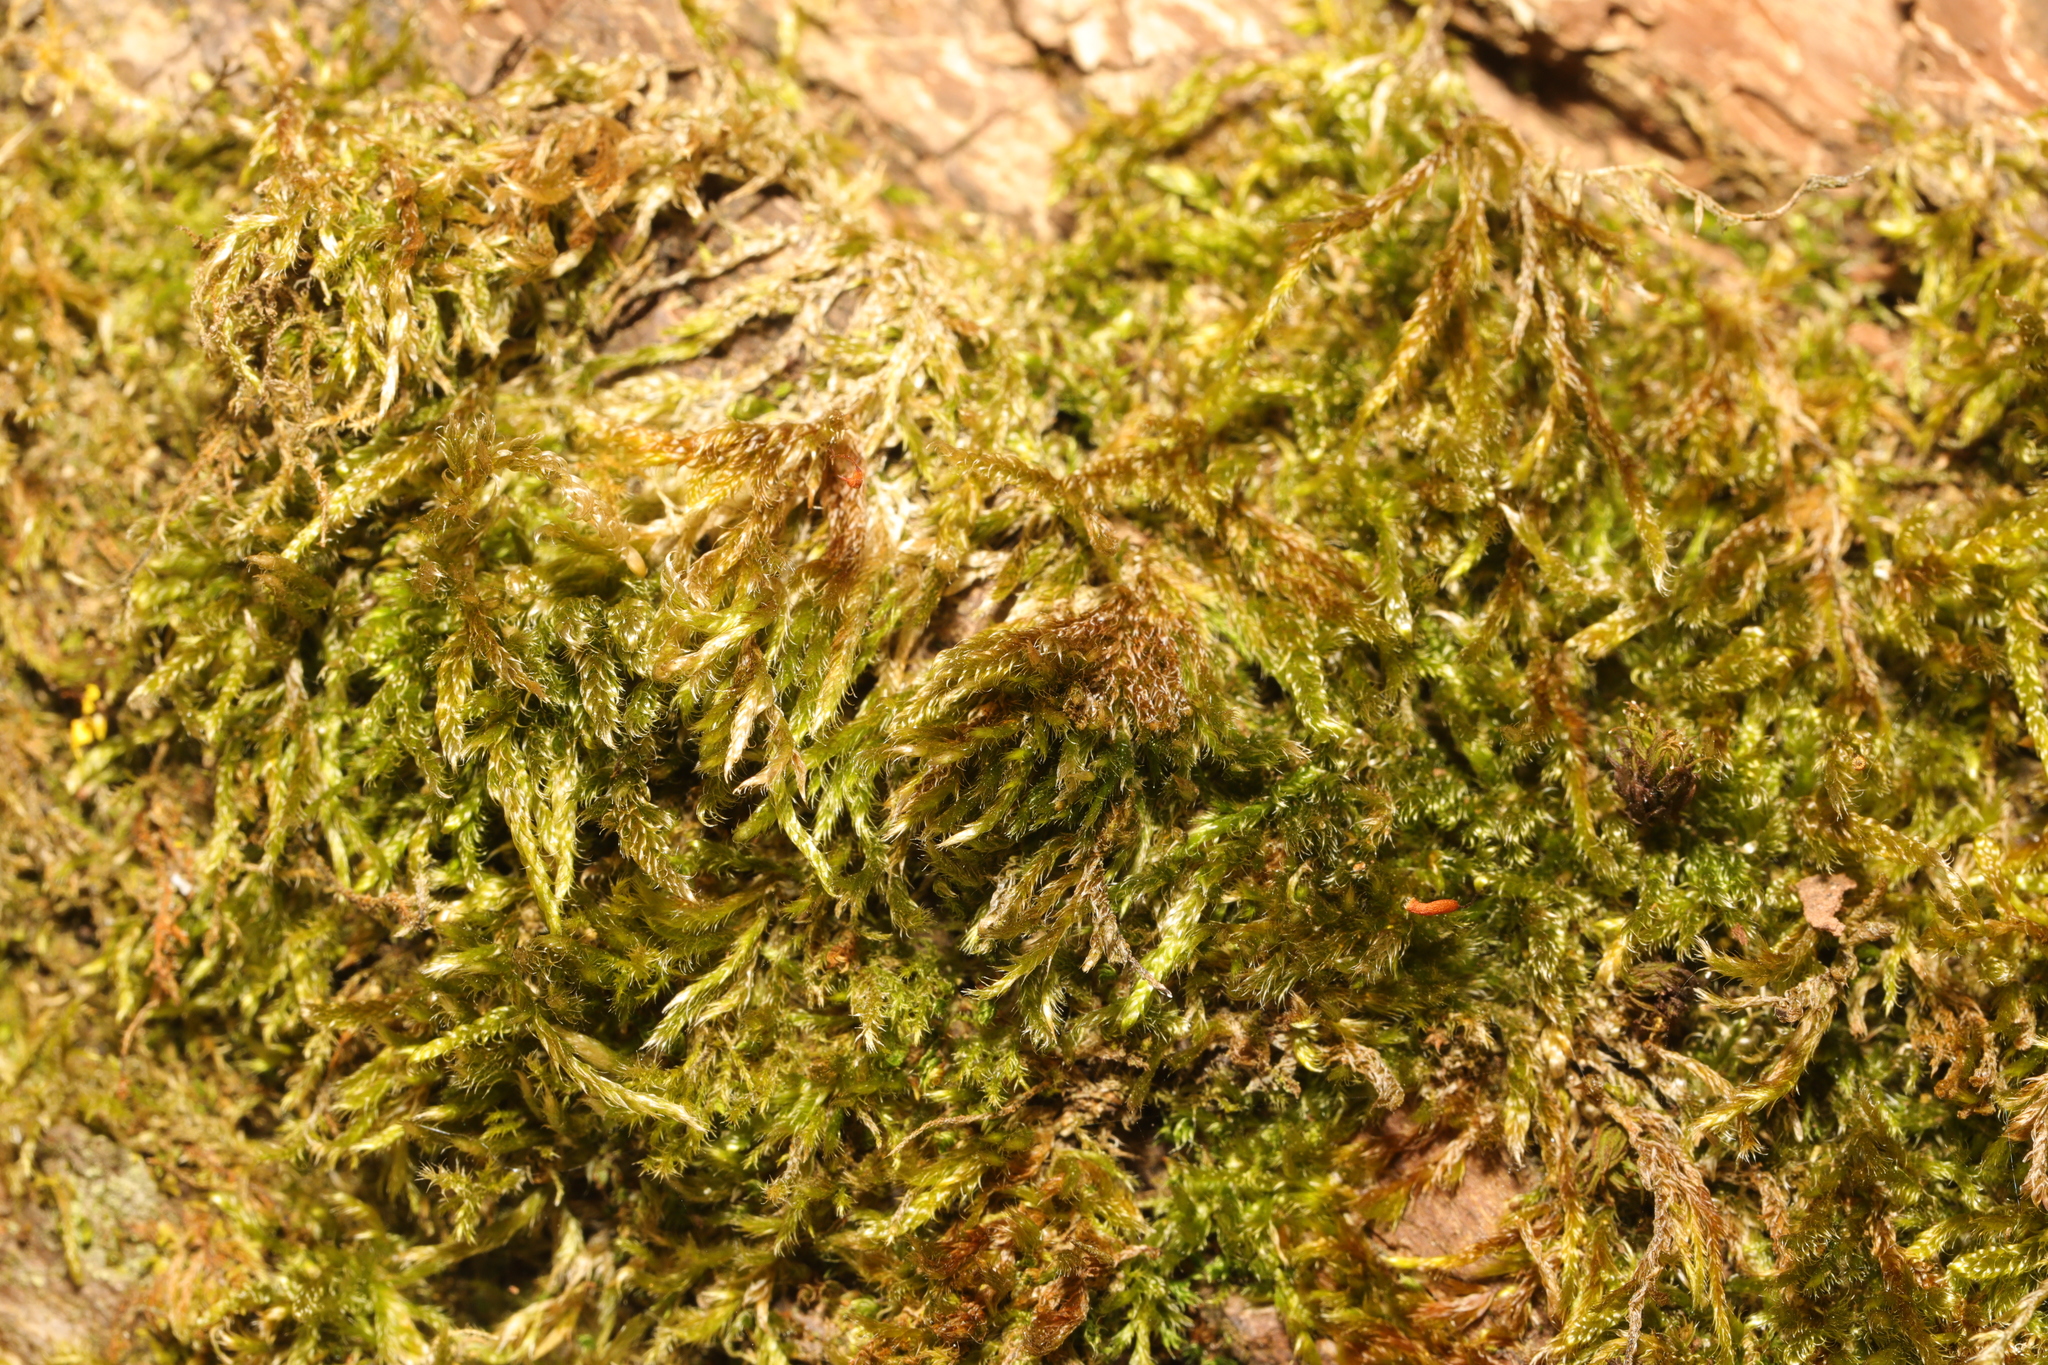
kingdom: Plantae
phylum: Bryophyta
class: Bryopsida
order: Hypnales
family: Hypnaceae
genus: Hypnum
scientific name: Hypnum cupressiforme
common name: Cypress-leaved plait-moss
